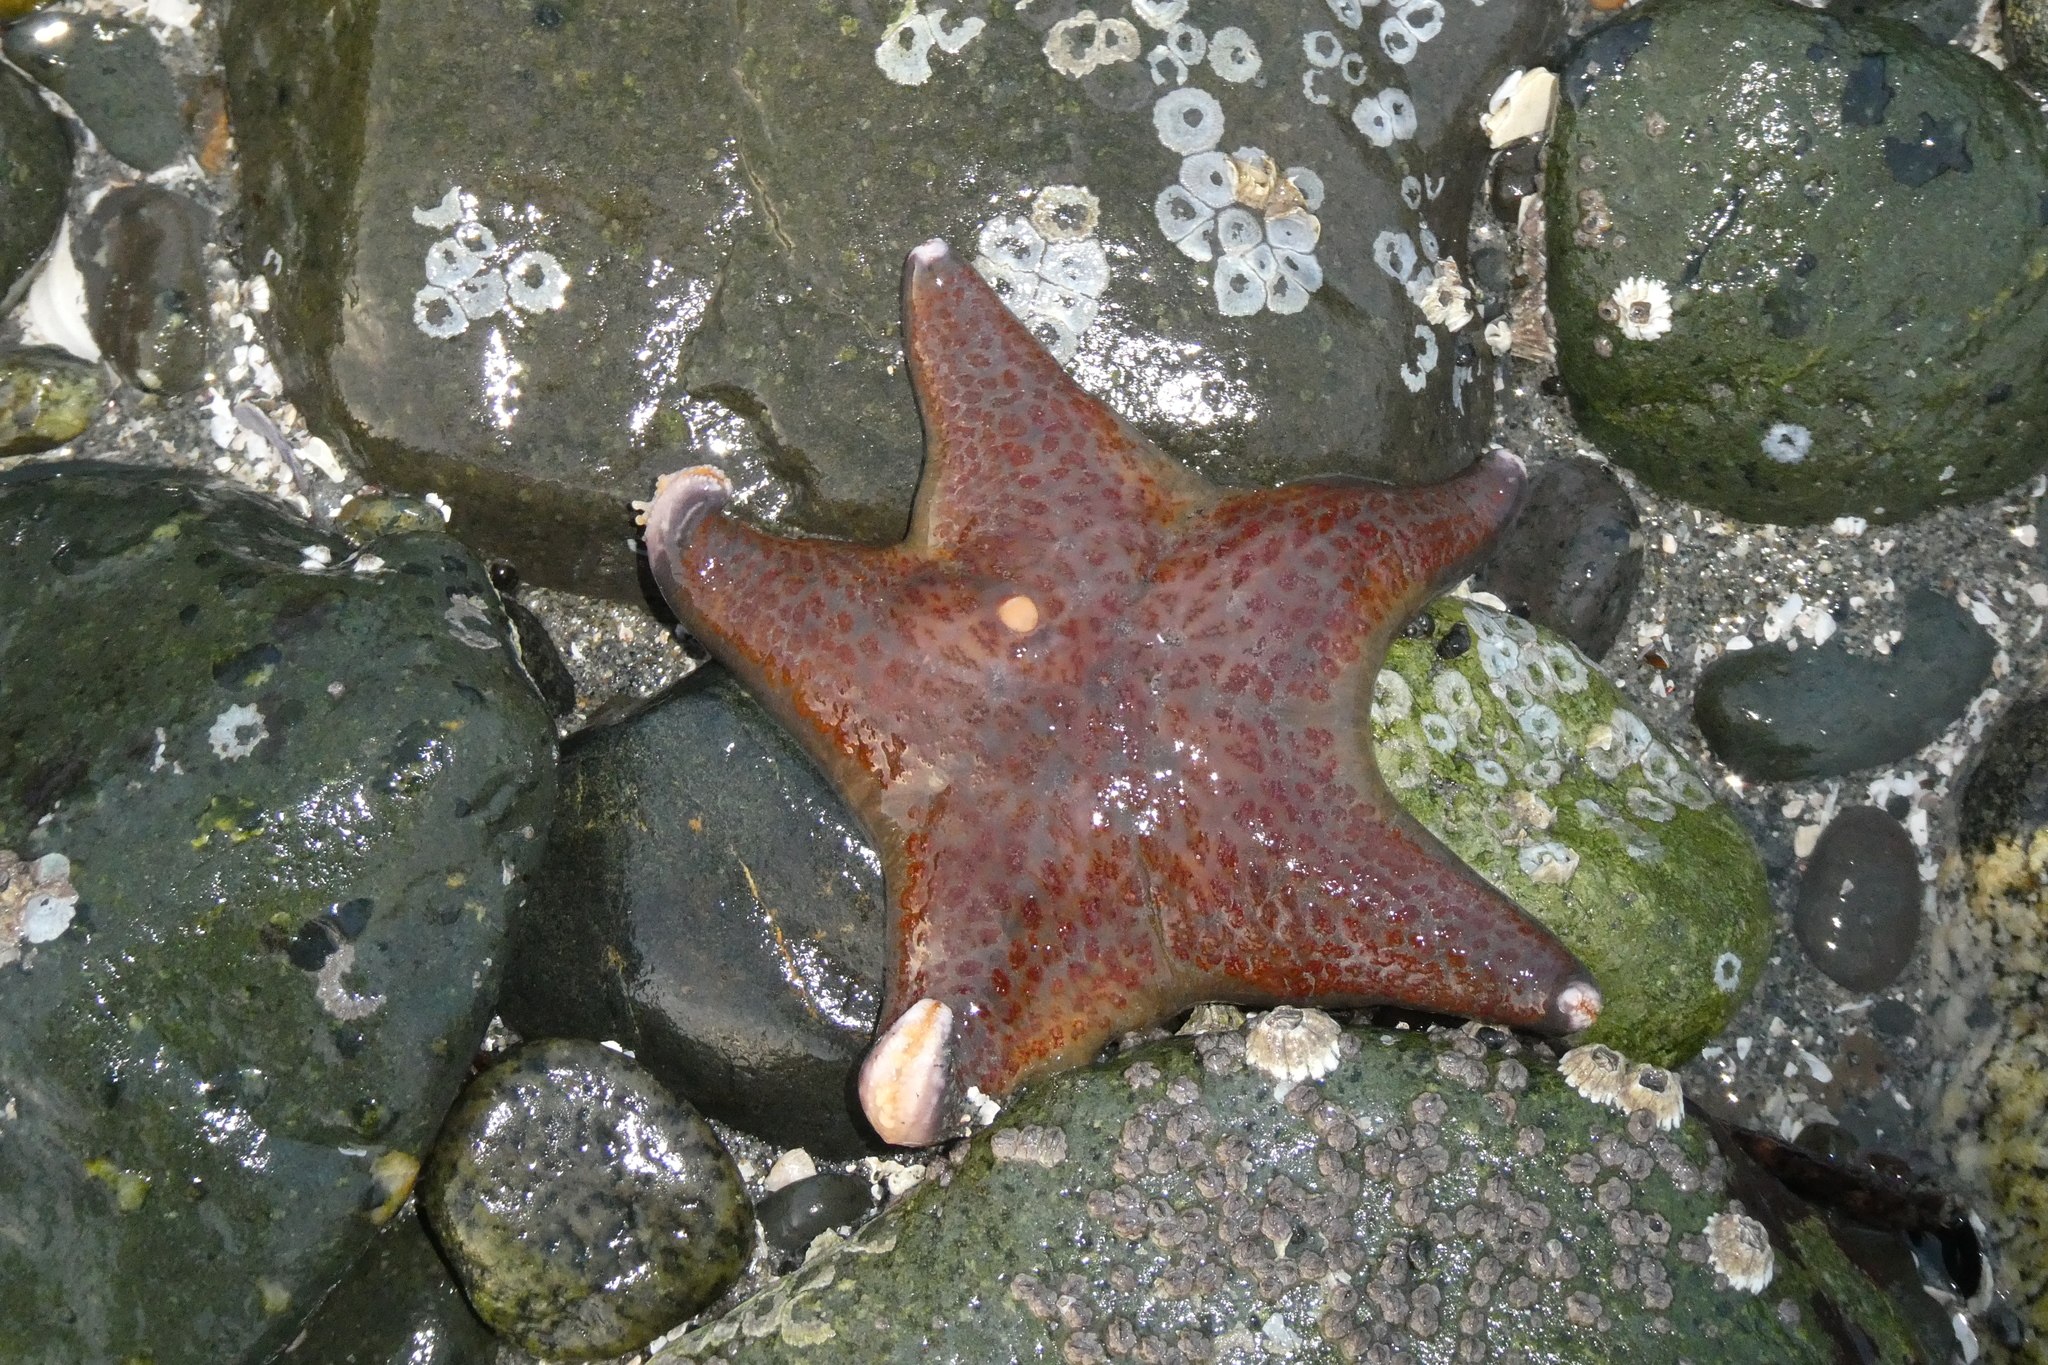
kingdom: Animalia
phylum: Echinodermata
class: Asteroidea
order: Valvatida
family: Asteropseidae
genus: Dermasterias
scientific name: Dermasterias imbricata
